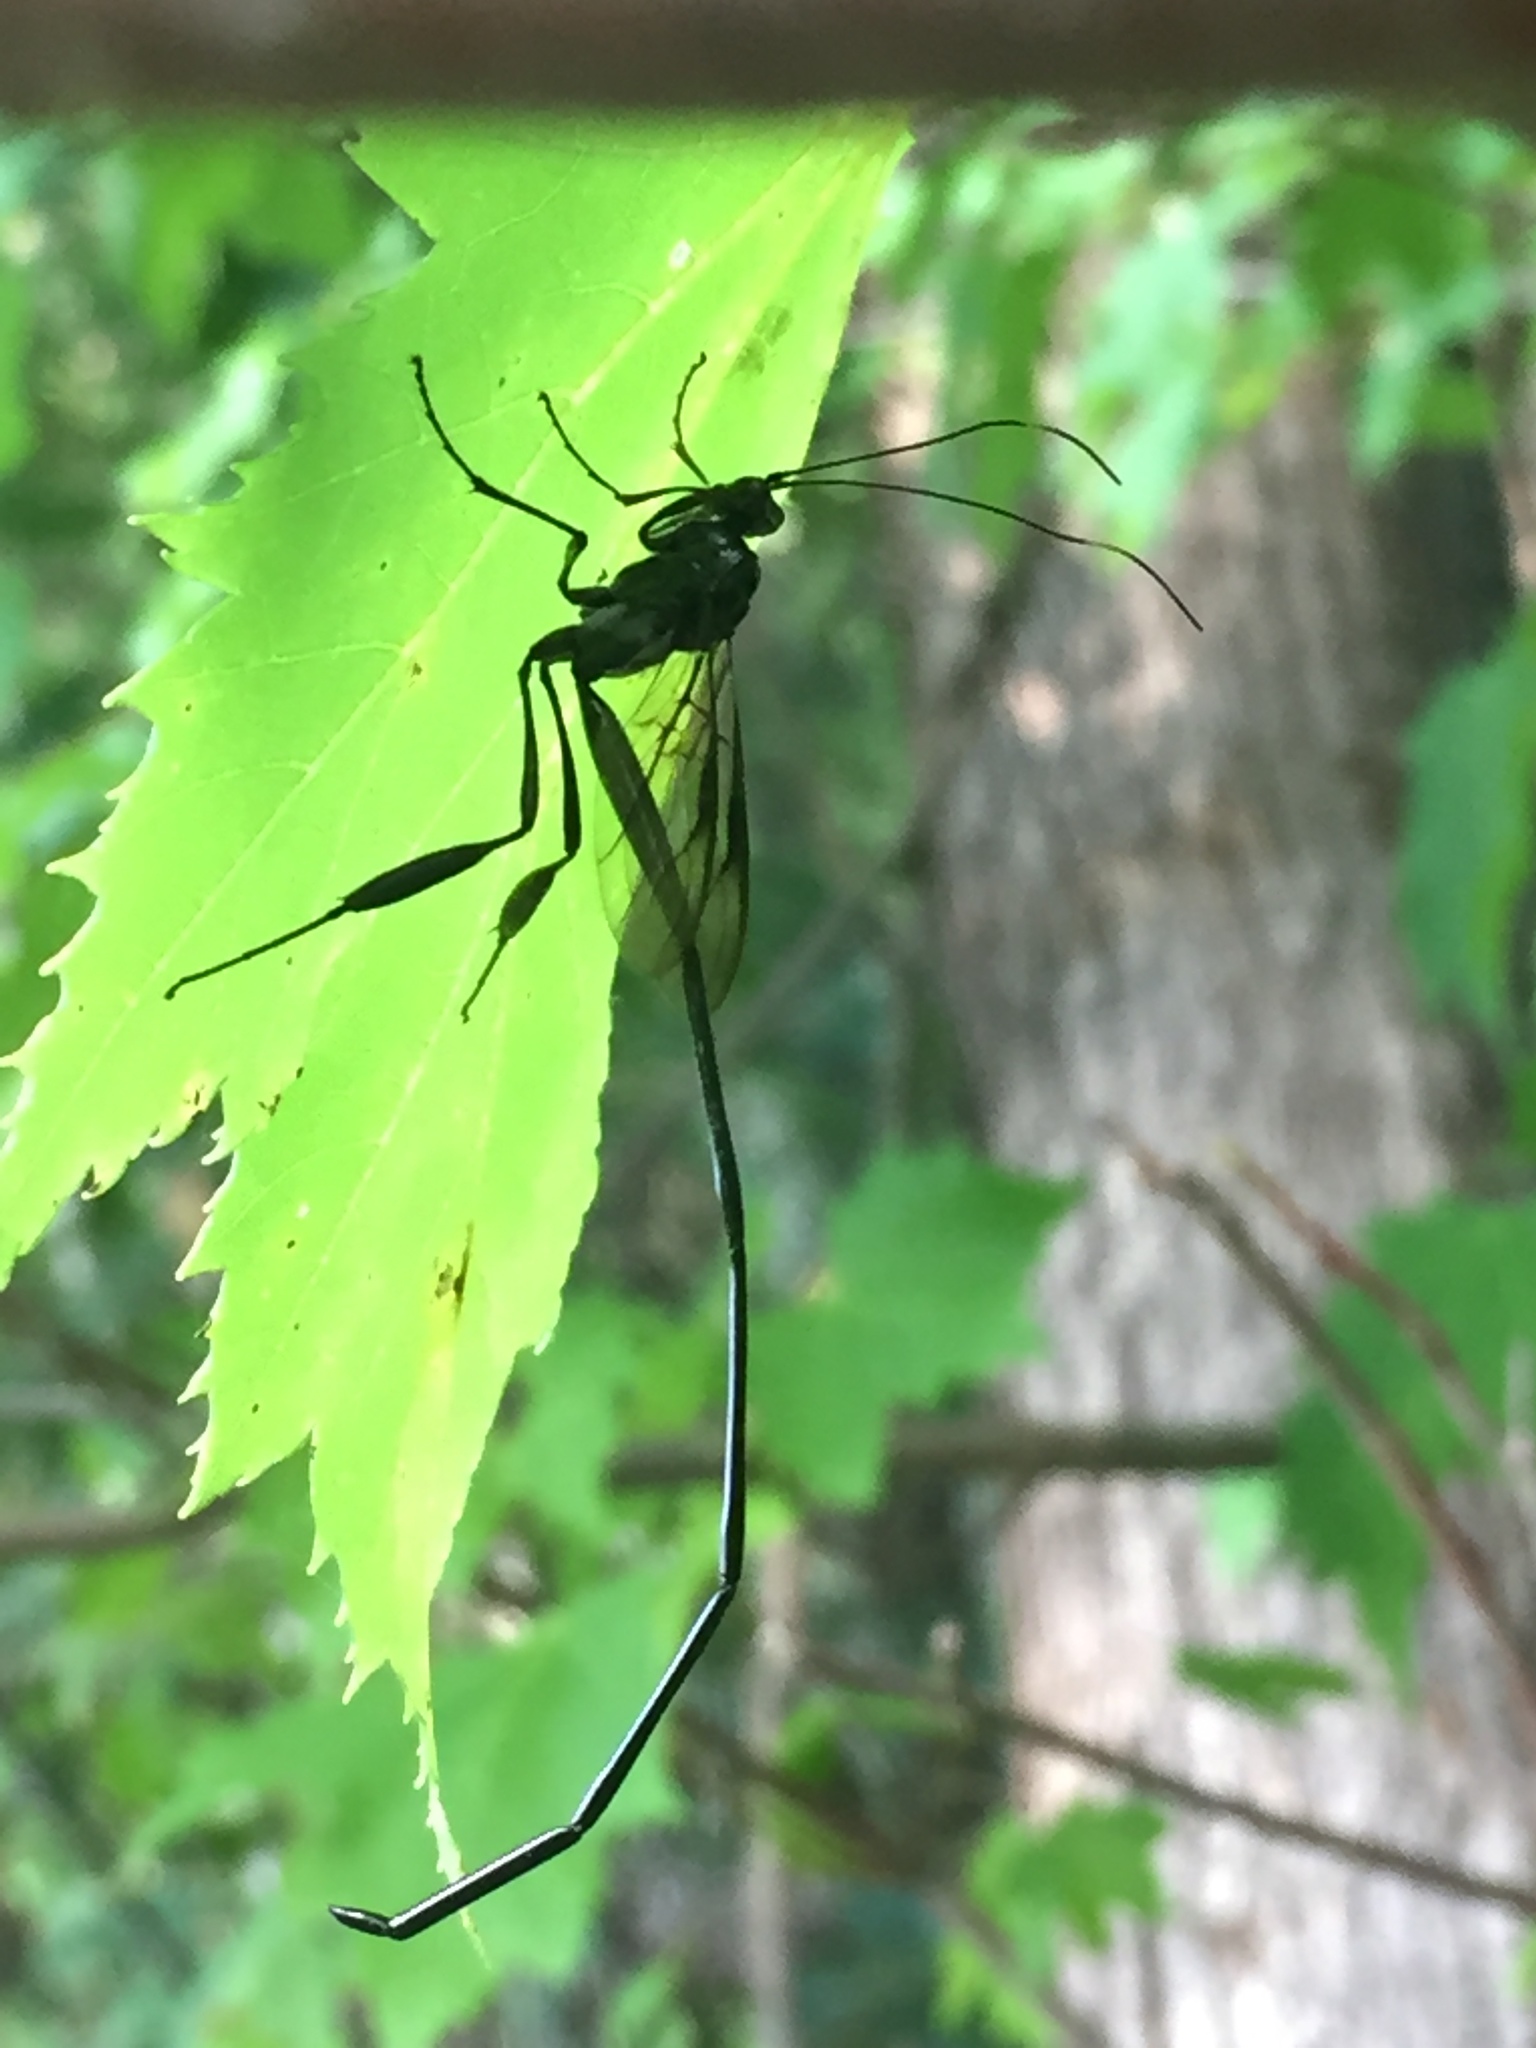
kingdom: Animalia
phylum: Arthropoda
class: Insecta
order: Hymenoptera
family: Pelecinidae
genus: Pelecinus
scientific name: Pelecinus polyturator
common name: American pelecinid wasp
